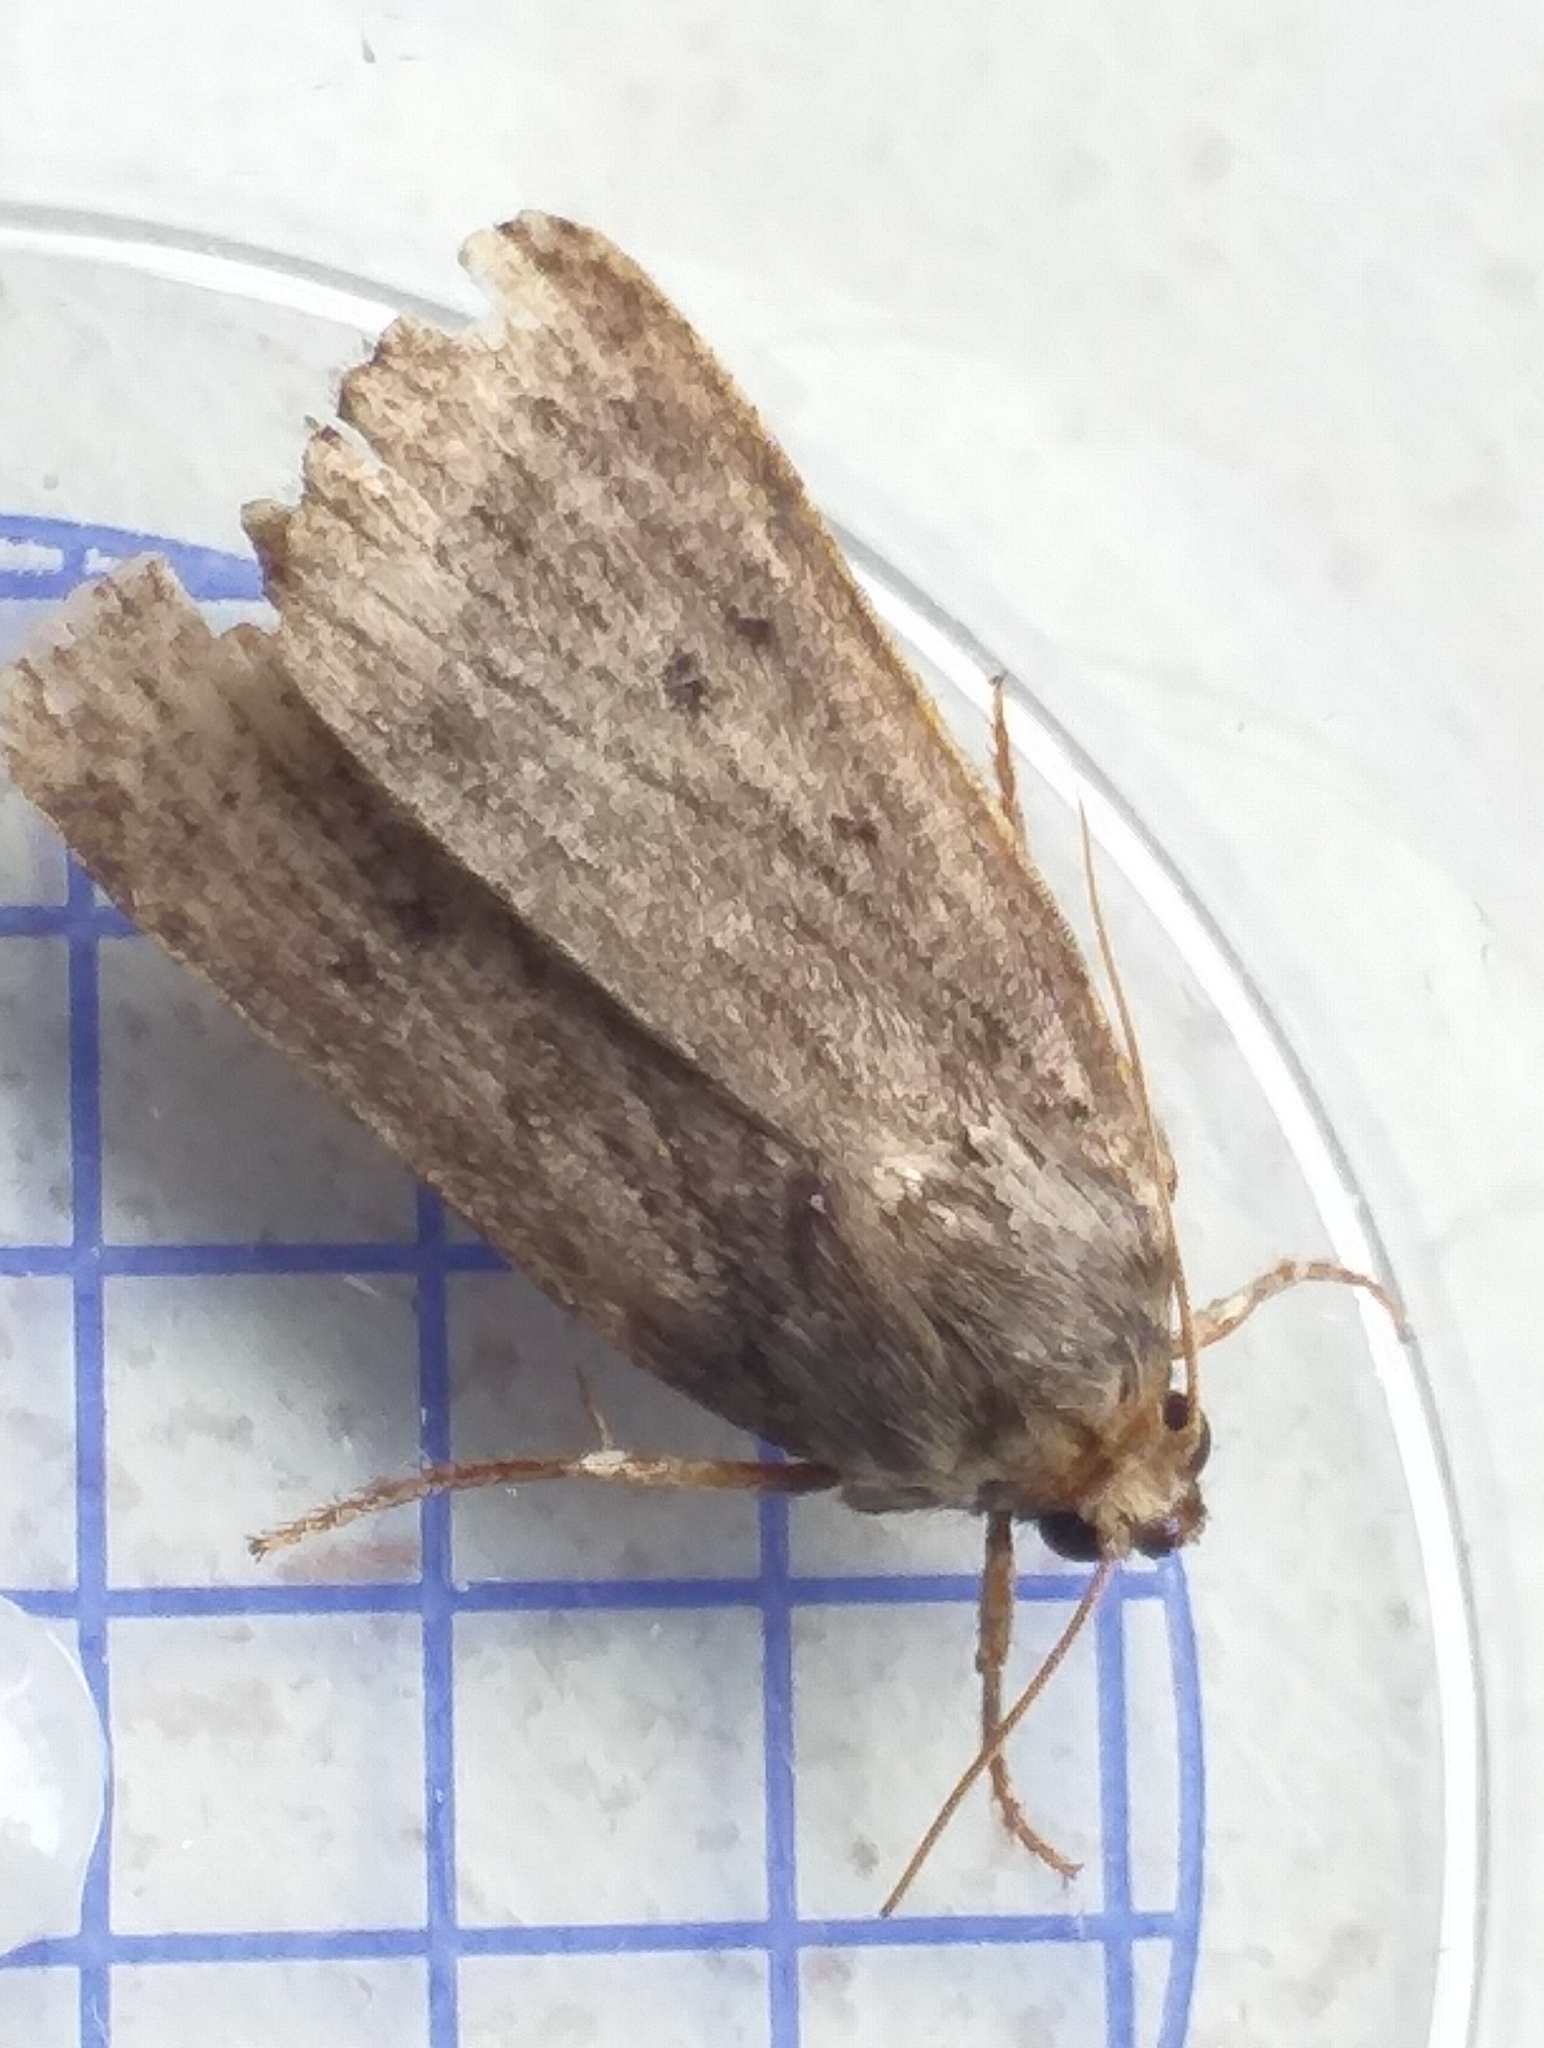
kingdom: Animalia
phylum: Arthropoda
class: Insecta
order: Lepidoptera
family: Noctuidae
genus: Amphipyra
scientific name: Amphipyra tragopoginis
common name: Mouse moth
